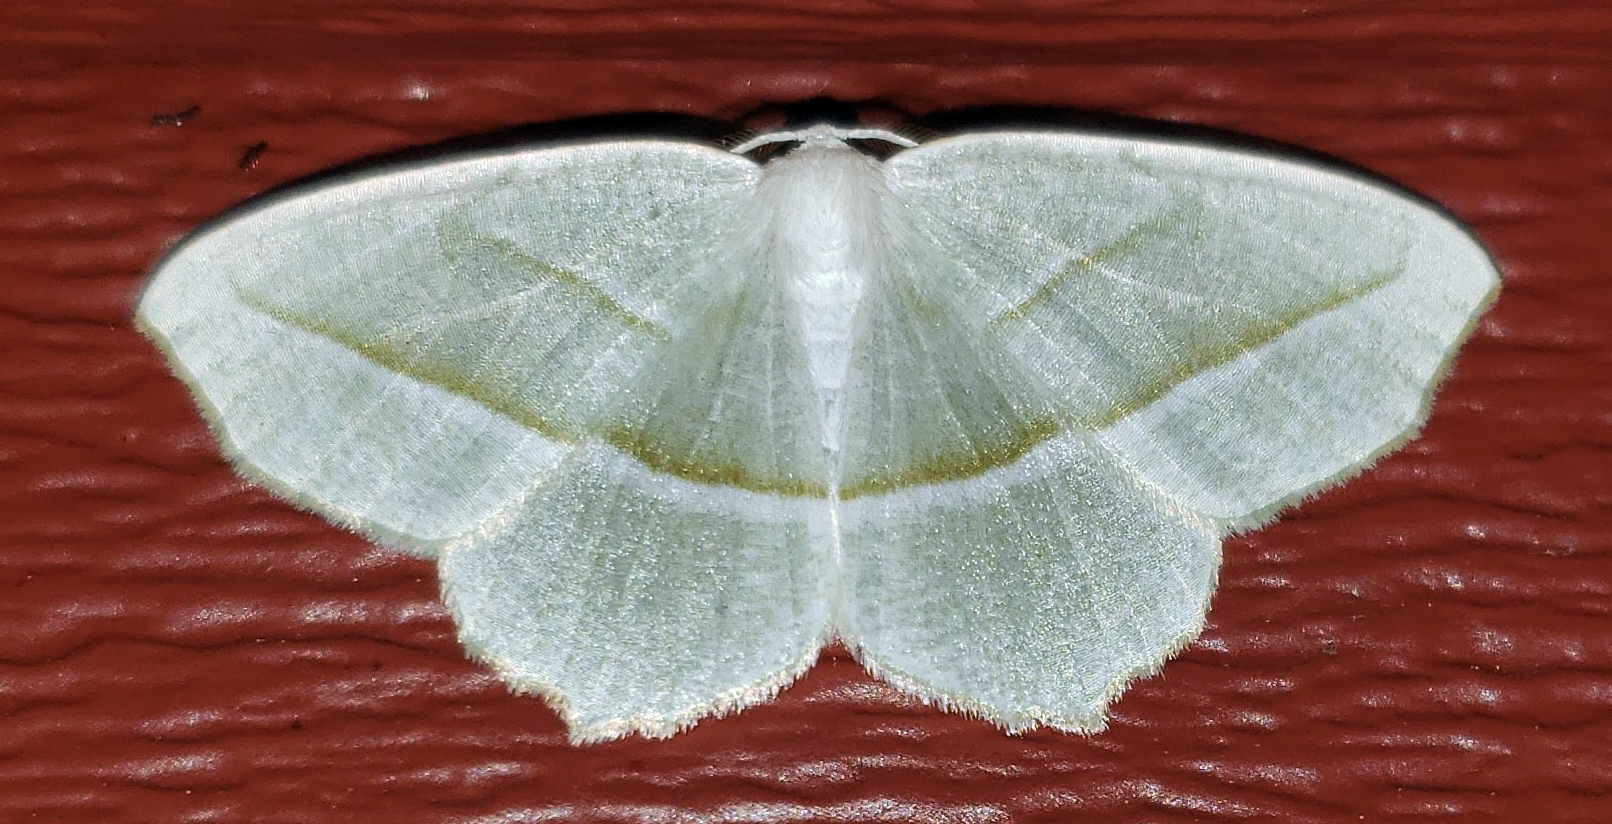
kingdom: Animalia
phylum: Arthropoda
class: Insecta
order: Lepidoptera
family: Geometridae
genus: Campaea
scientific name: Campaea perlata
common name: Fringed looper
